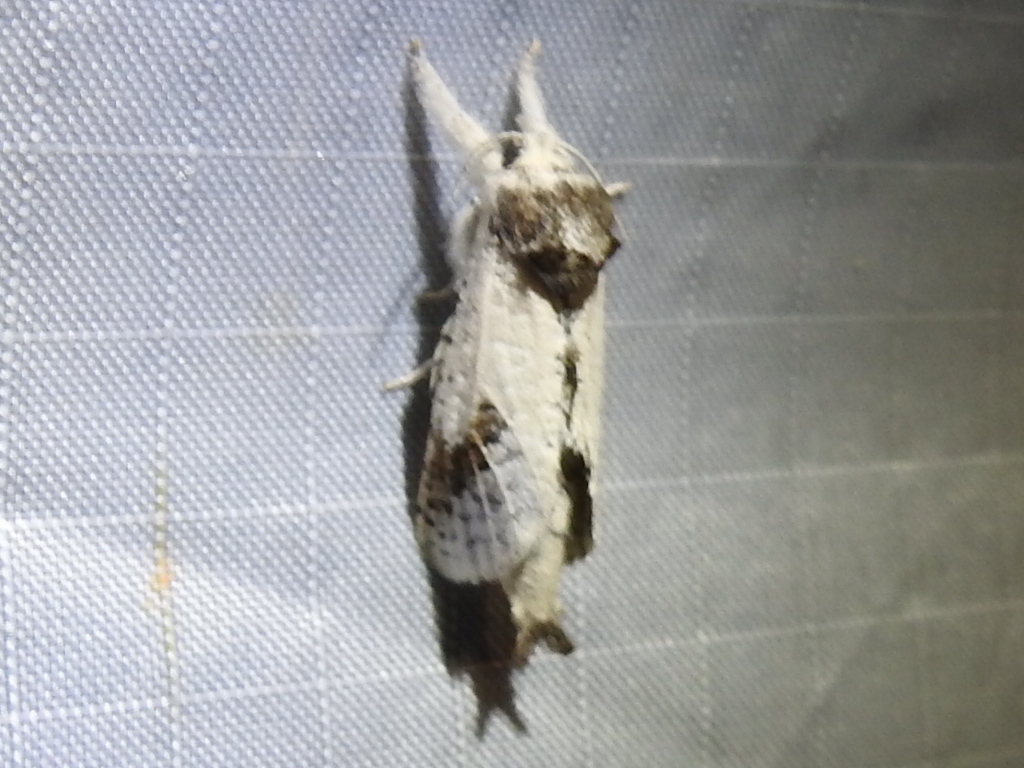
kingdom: Animalia
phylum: Arthropoda
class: Insecta
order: Lepidoptera
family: Cossidae
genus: Givira
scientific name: Givira theodori
